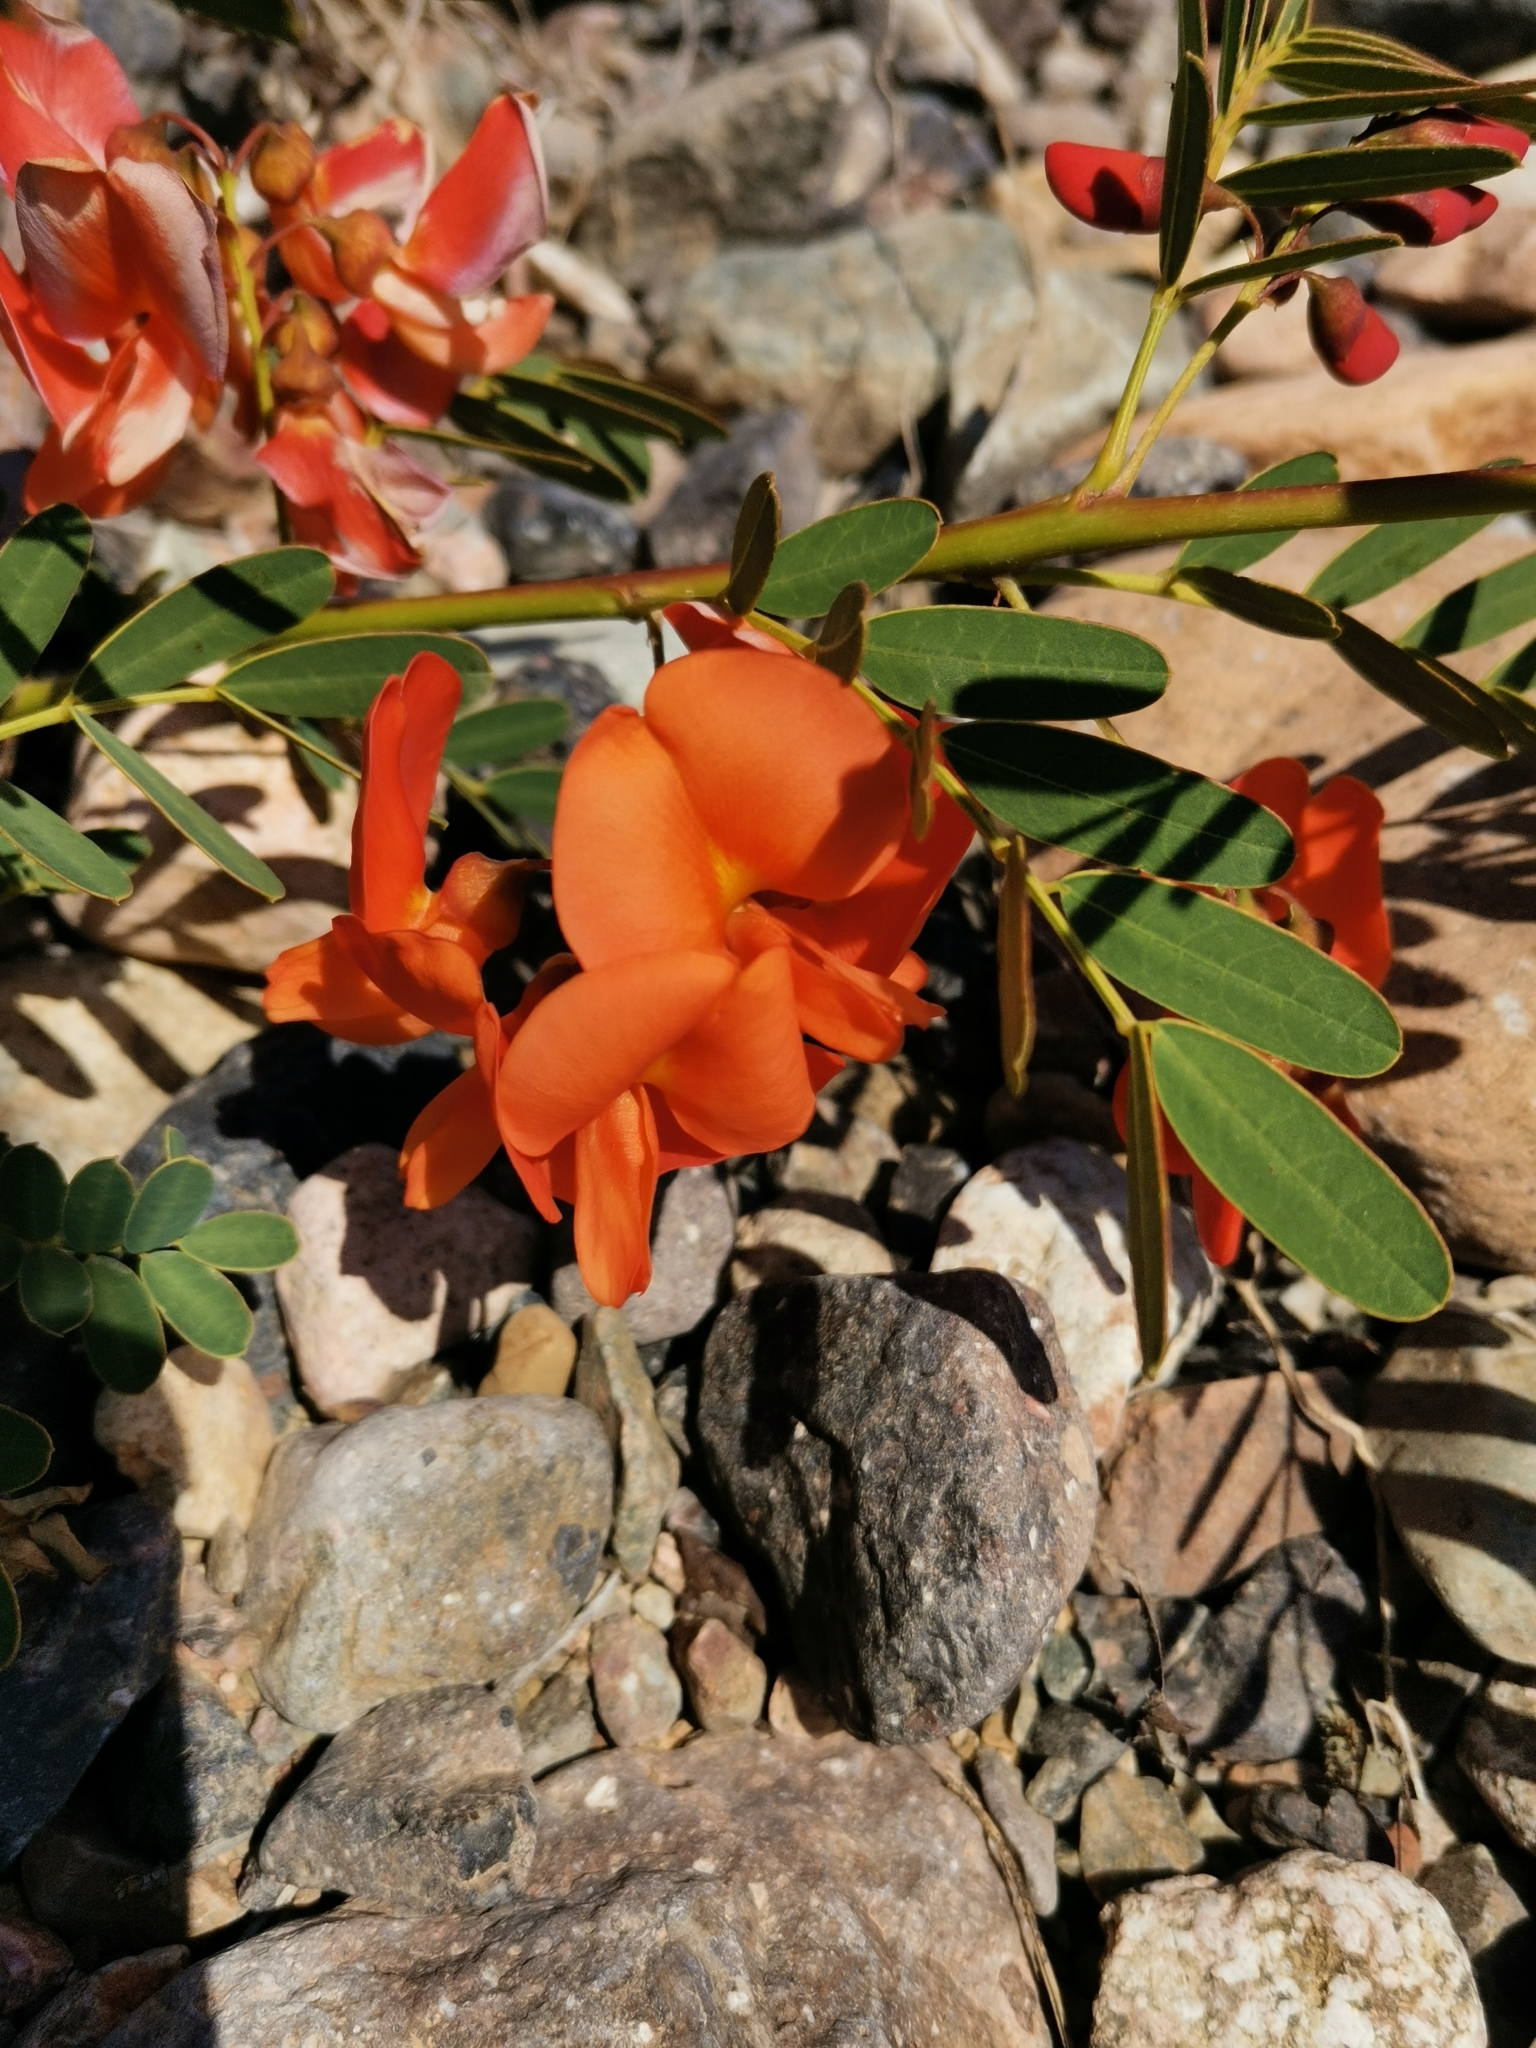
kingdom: Plantae
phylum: Tracheophyta
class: Magnoliopsida
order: Fabales
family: Fabaceae
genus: Sesbania
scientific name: Sesbania punicea
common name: Rattlebox
